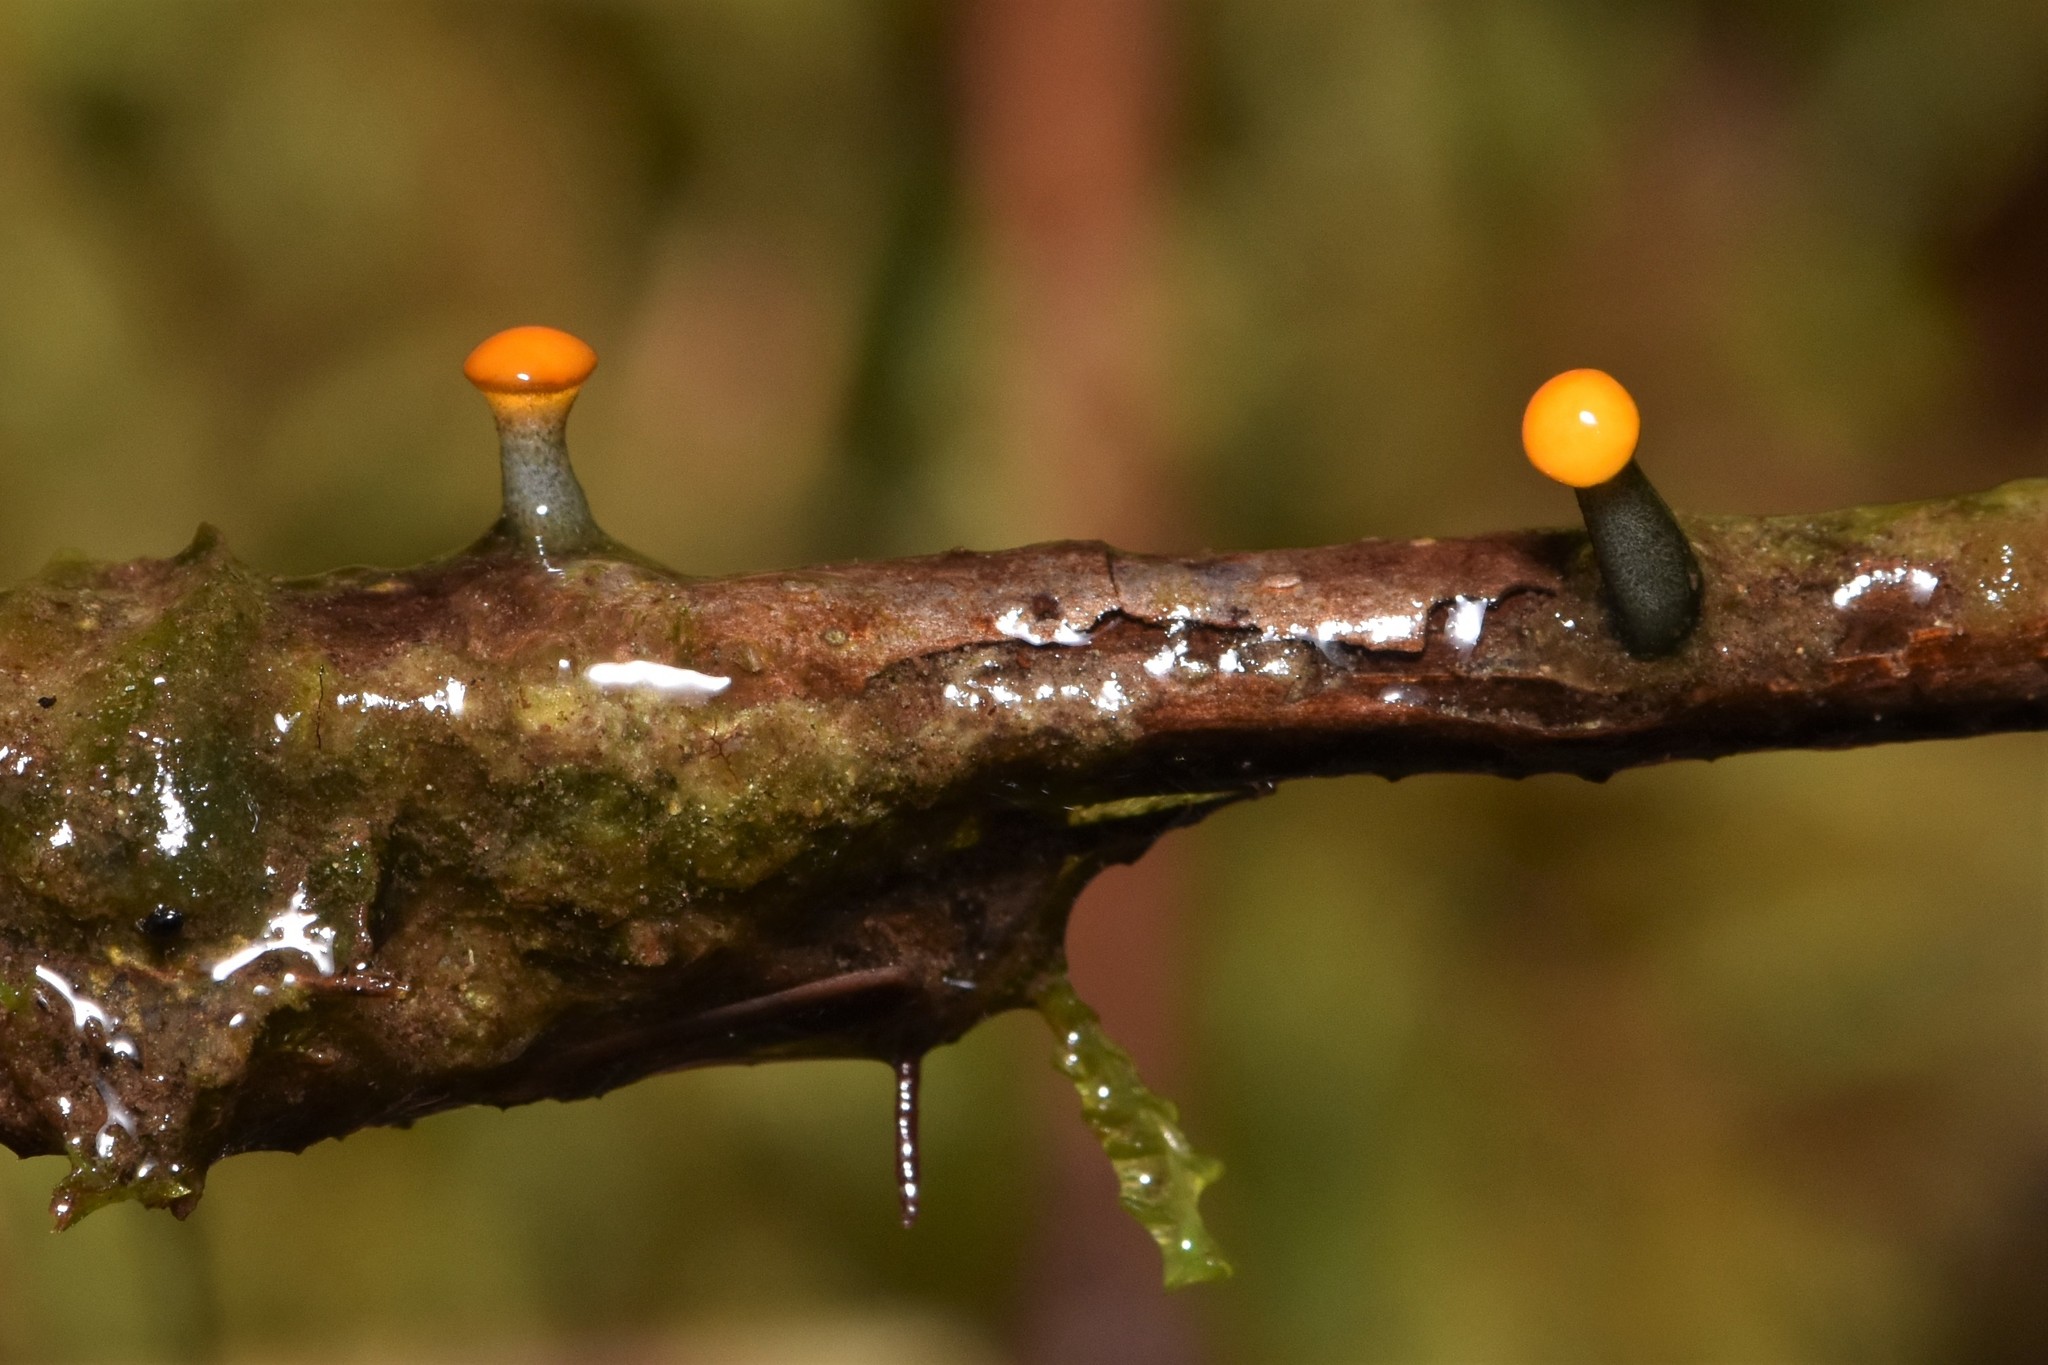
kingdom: Fungi
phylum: Ascomycota
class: Leotiomycetes
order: Helotiales
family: Vibrisseaceae
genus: Vibrissea
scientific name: Vibrissea truncorum
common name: Stream beacon
